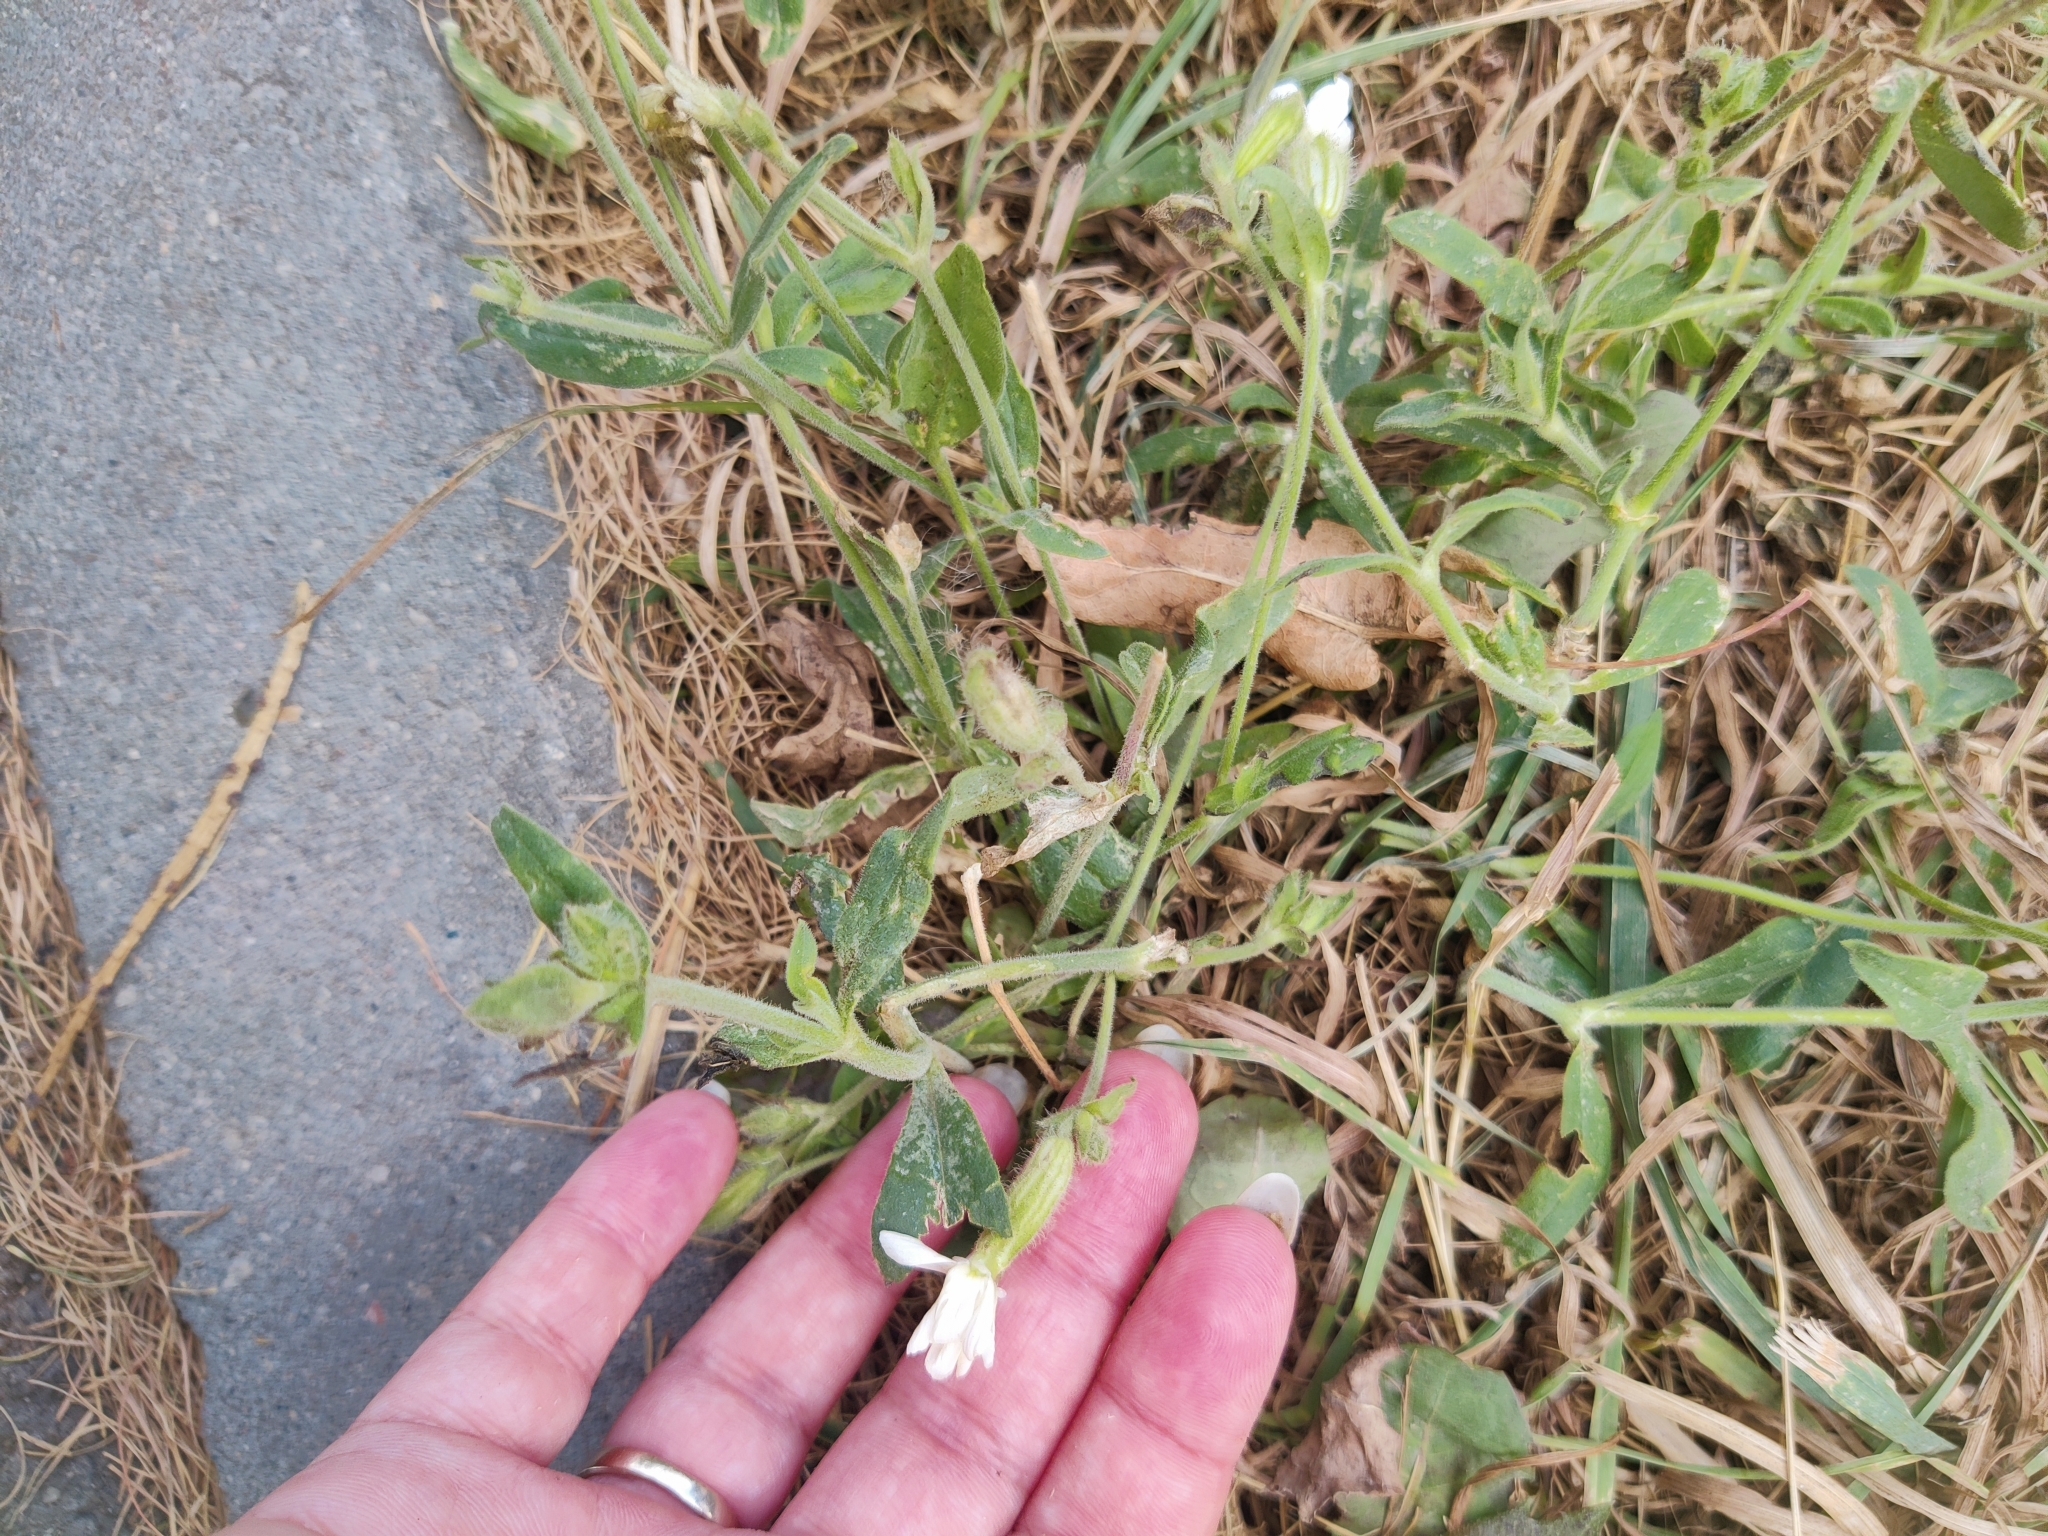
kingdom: Plantae
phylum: Tracheophyta
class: Magnoliopsida
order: Caryophyllales
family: Caryophyllaceae
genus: Silene
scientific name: Silene latifolia
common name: White campion
